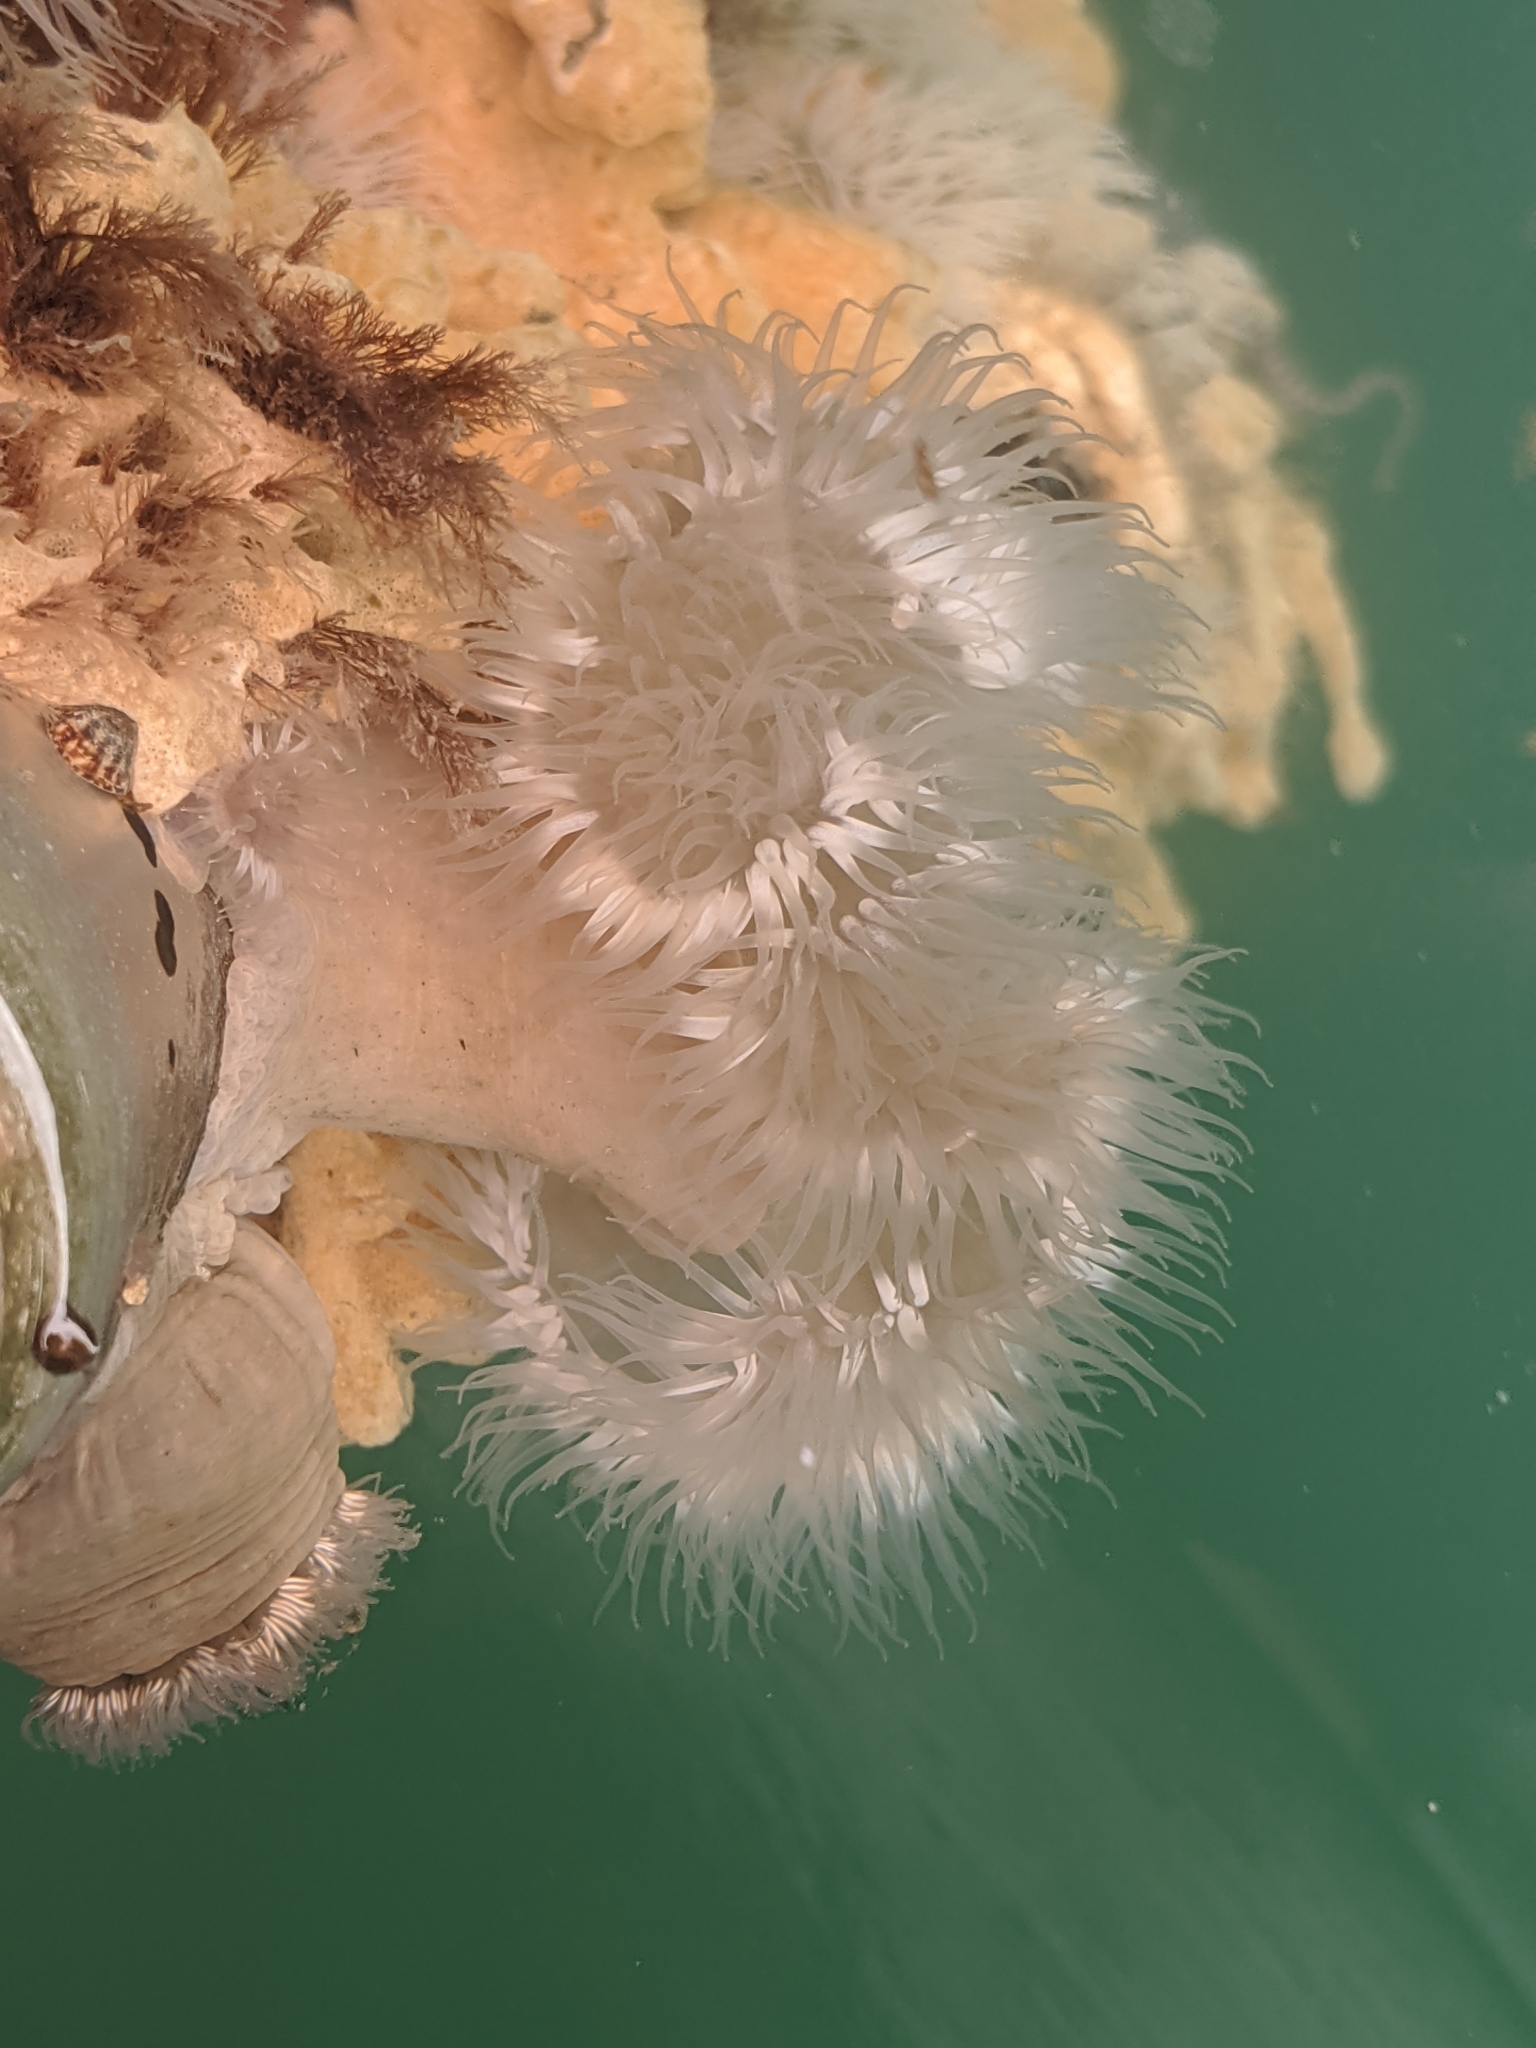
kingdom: Animalia
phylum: Cnidaria
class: Anthozoa
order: Actiniaria
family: Metridiidae
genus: Metridium
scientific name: Metridium senile
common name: Clonal plumose anemone
